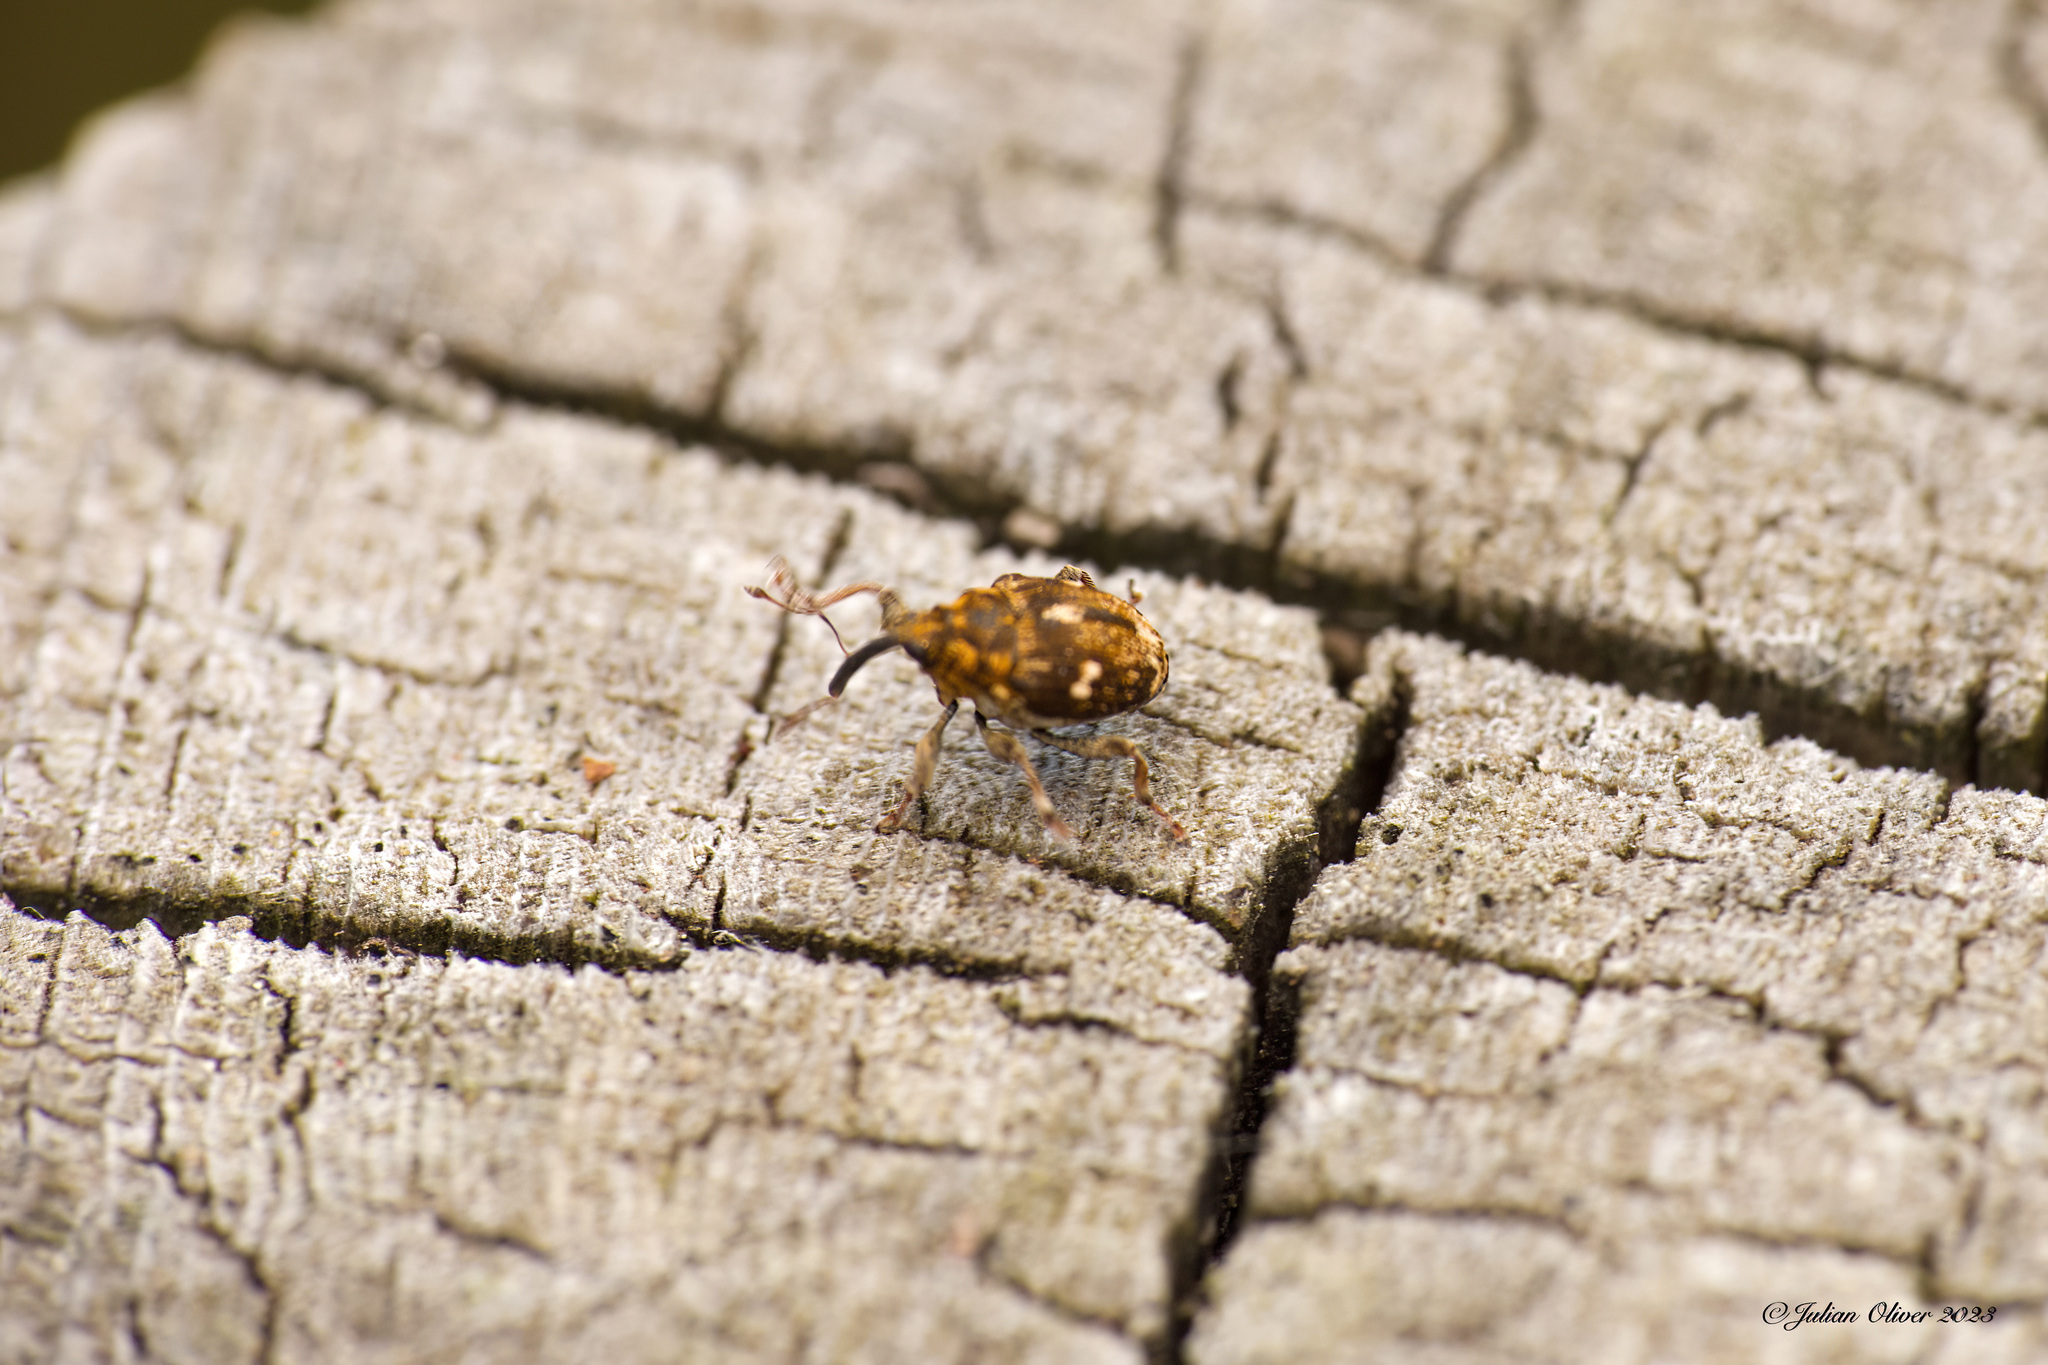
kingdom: Animalia
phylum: Arthropoda
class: Insecta
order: Coleoptera
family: Curculionidae
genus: Mogulones
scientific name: Mogulones asperifoliarum
